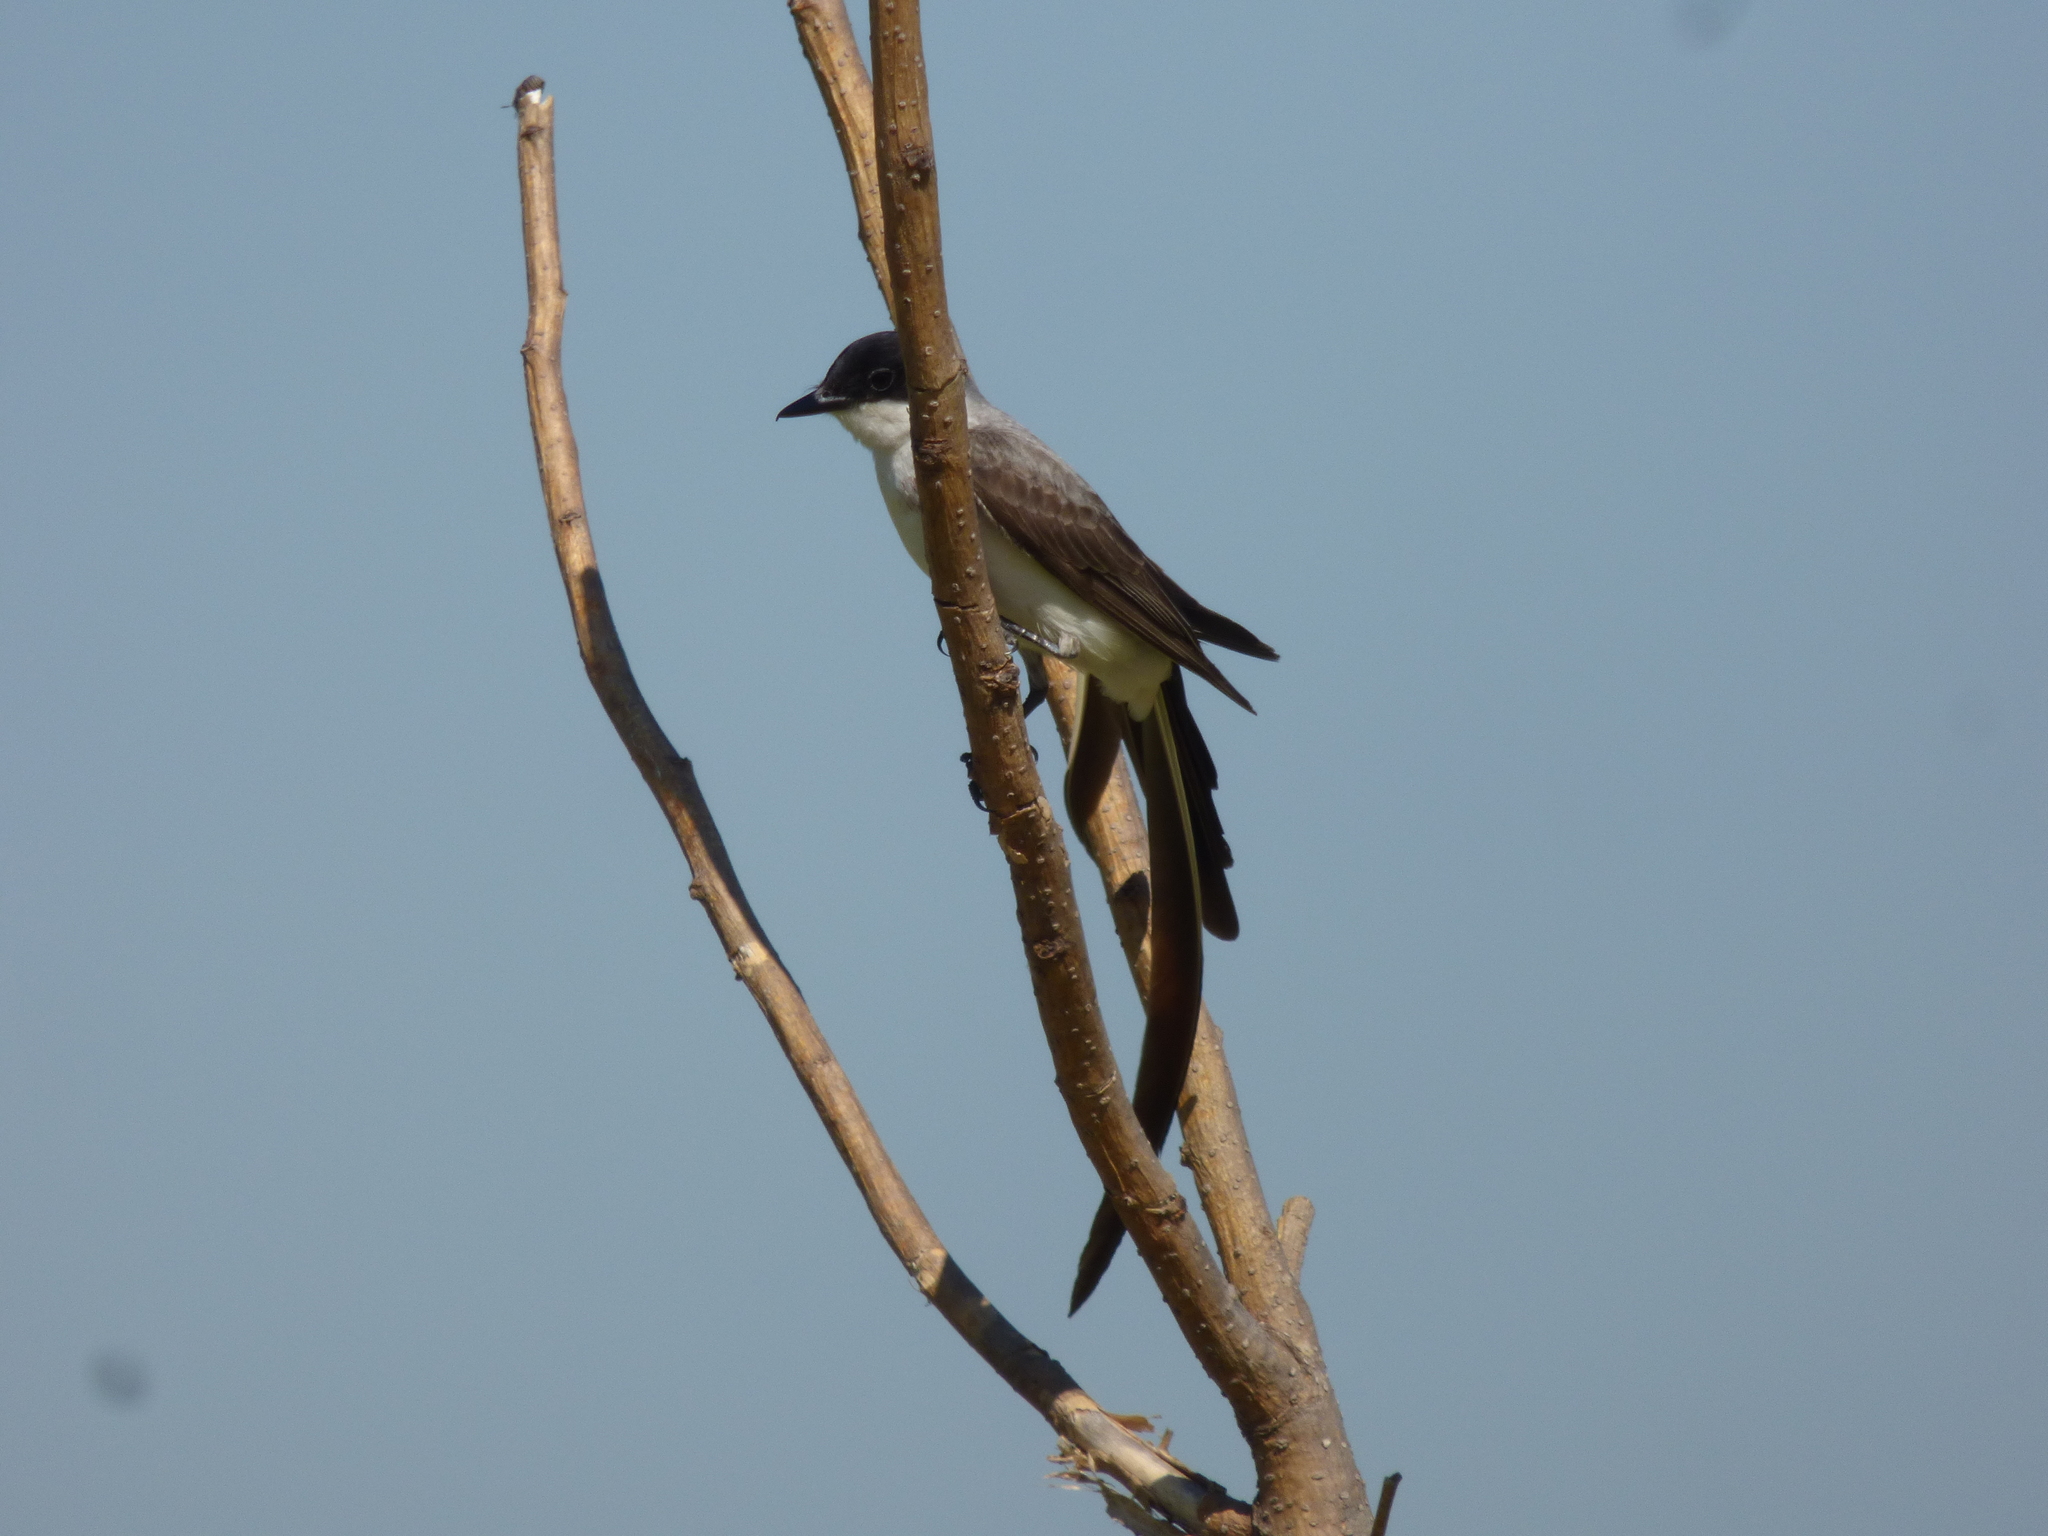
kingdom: Animalia
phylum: Chordata
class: Aves
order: Passeriformes
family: Tyrannidae
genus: Tyrannus
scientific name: Tyrannus savana
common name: Fork-tailed flycatcher
